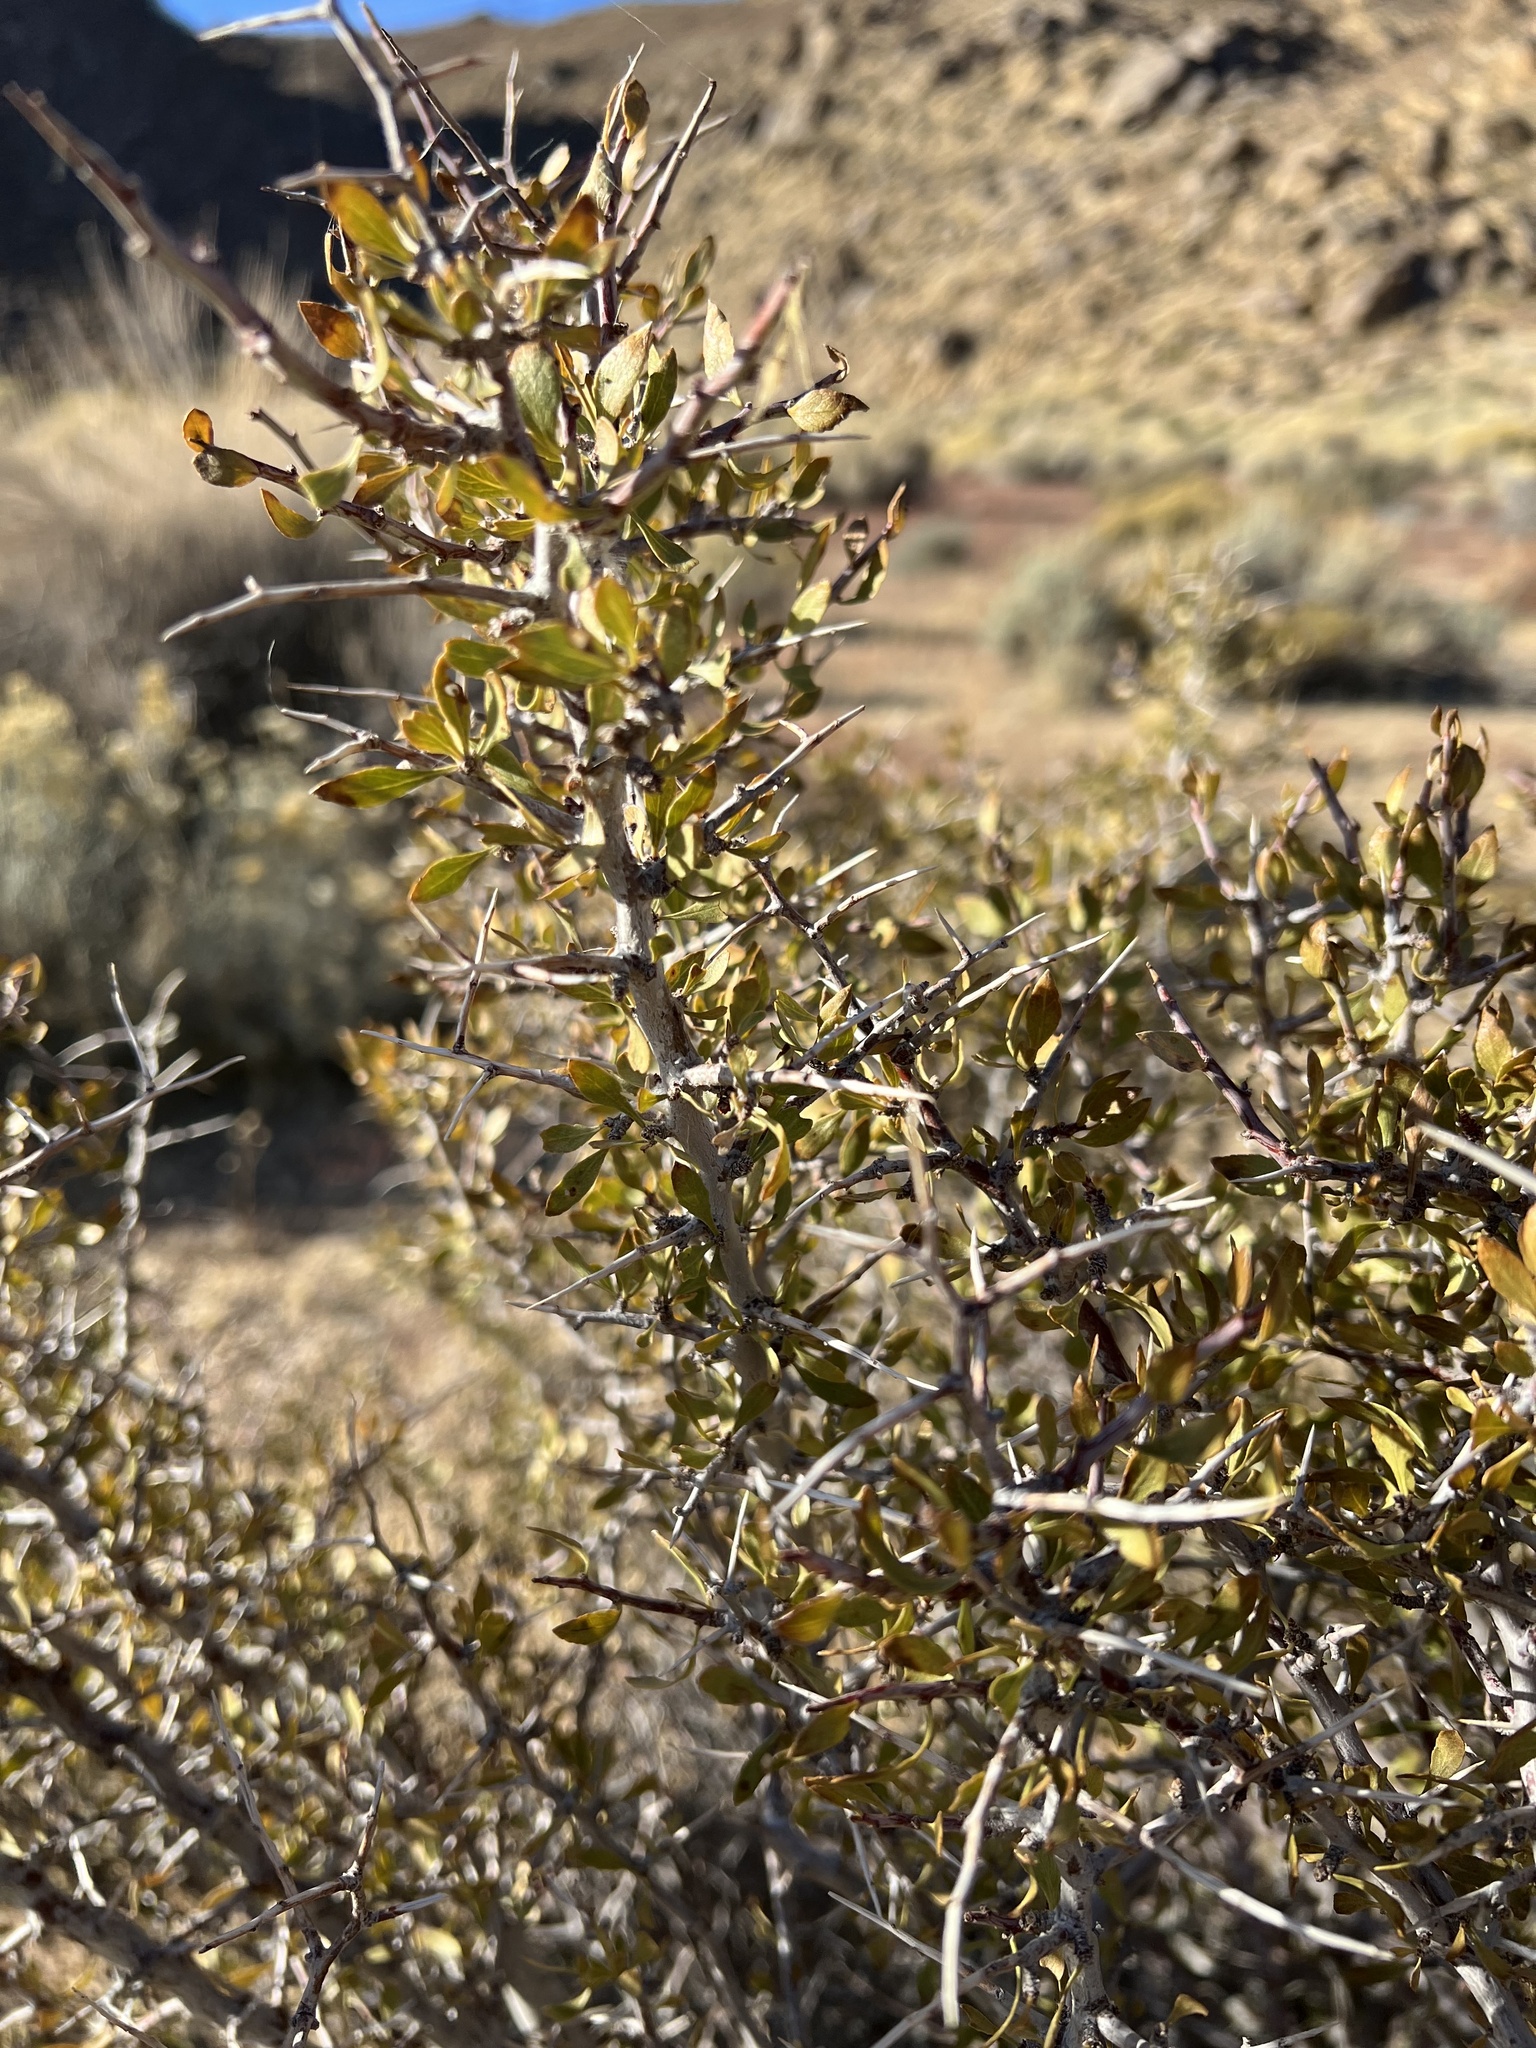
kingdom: Plantae
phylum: Tracheophyta
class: Magnoliopsida
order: Rosales
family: Rosaceae
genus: Prunus
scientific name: Prunus andersonii
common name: Desert peach
